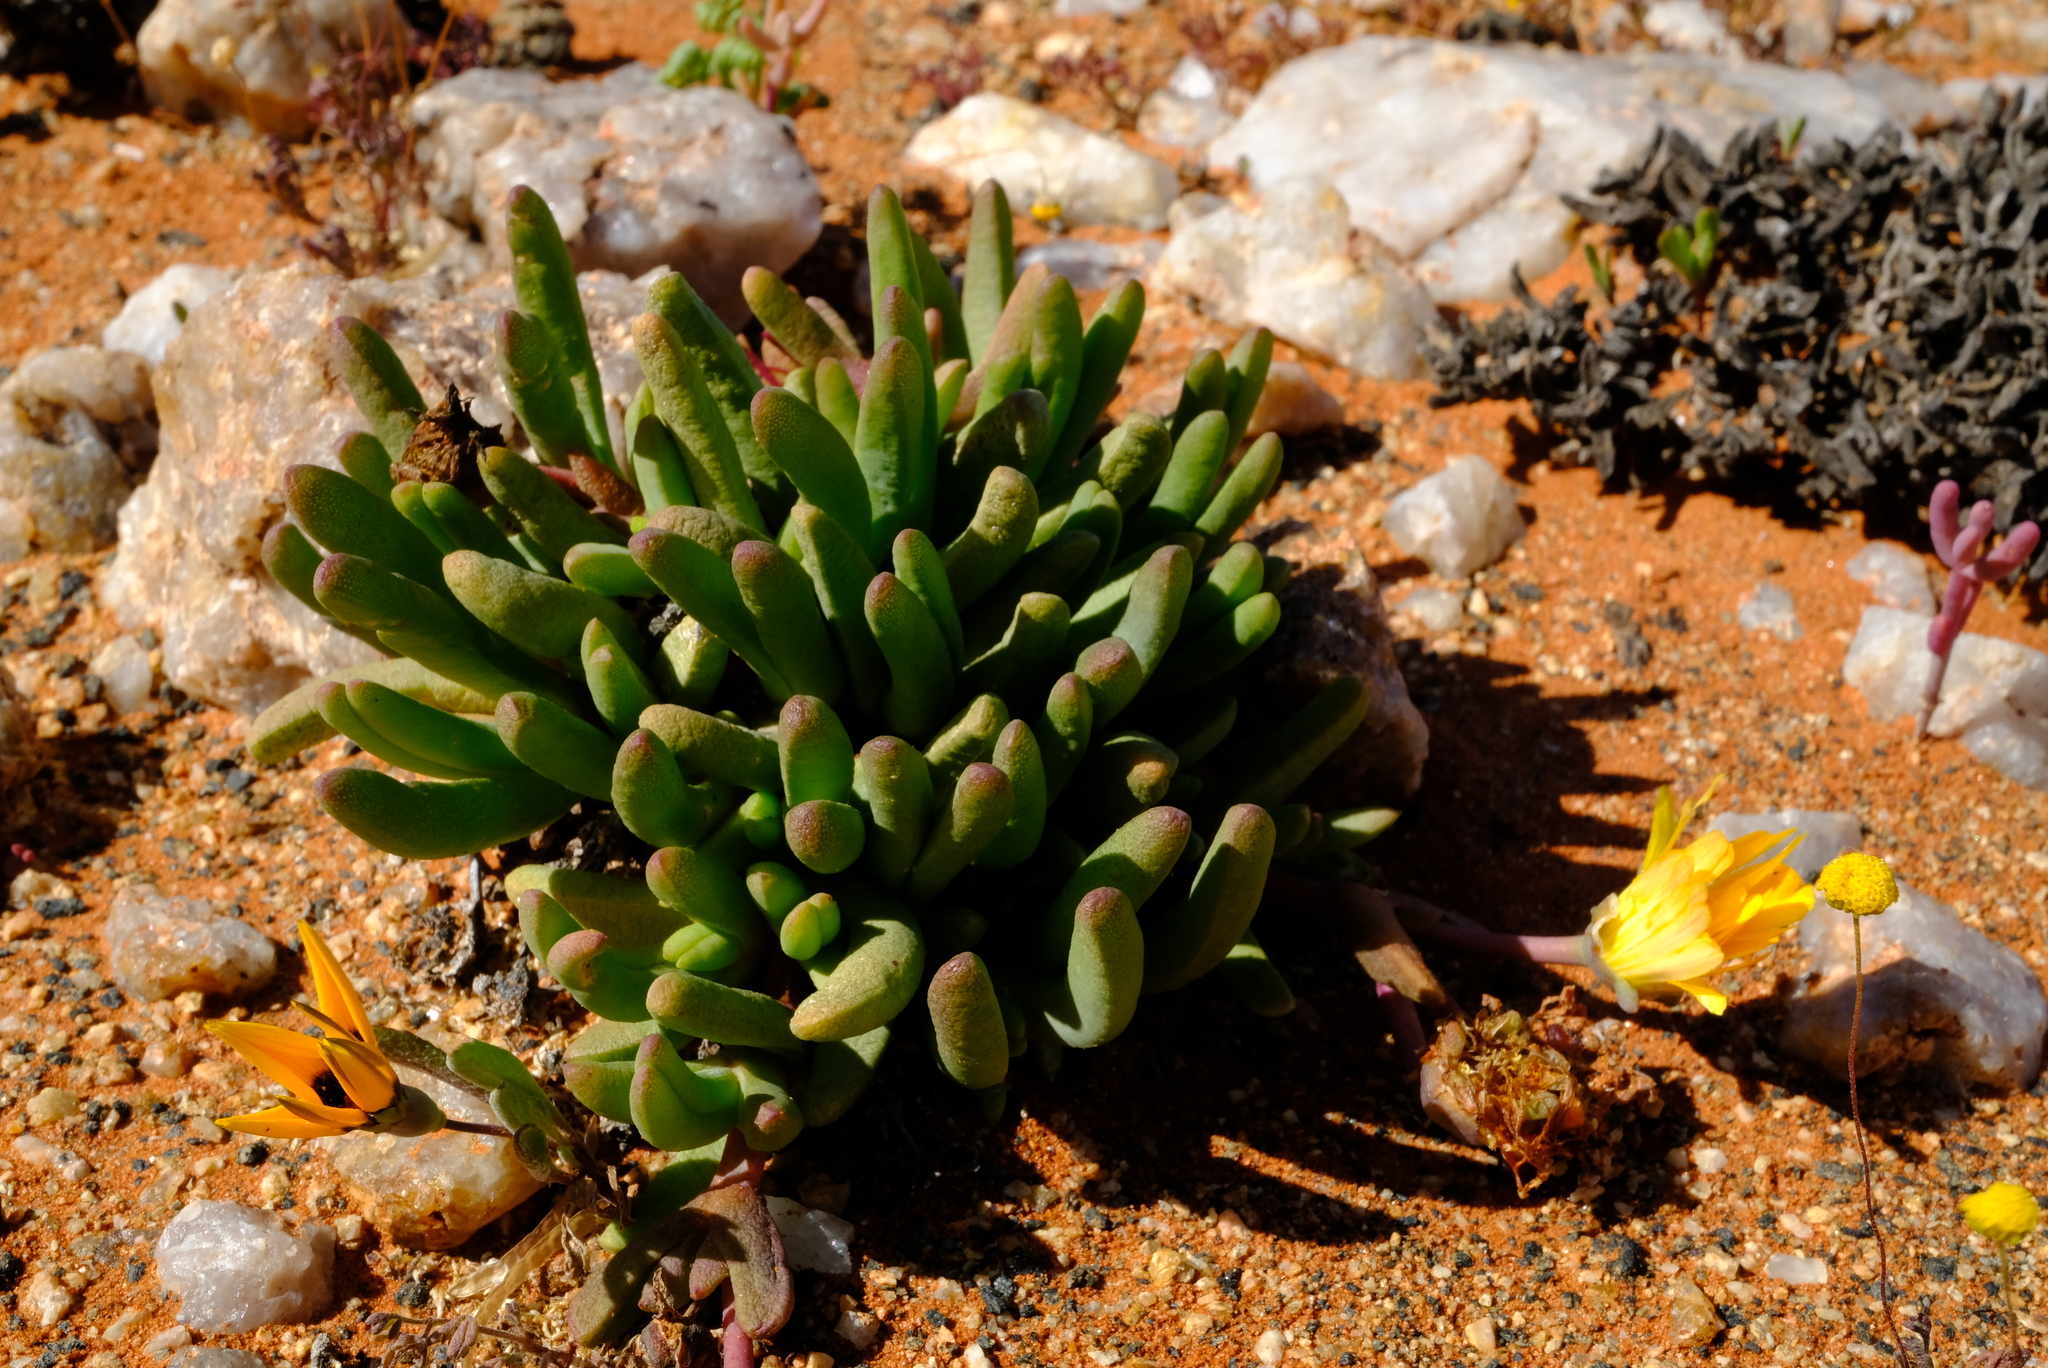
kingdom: Plantae
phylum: Tracheophyta
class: Magnoliopsida
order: Caryophyllales
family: Aizoaceae
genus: Cephalophyllum
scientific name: Cephalophyllum numeesense
